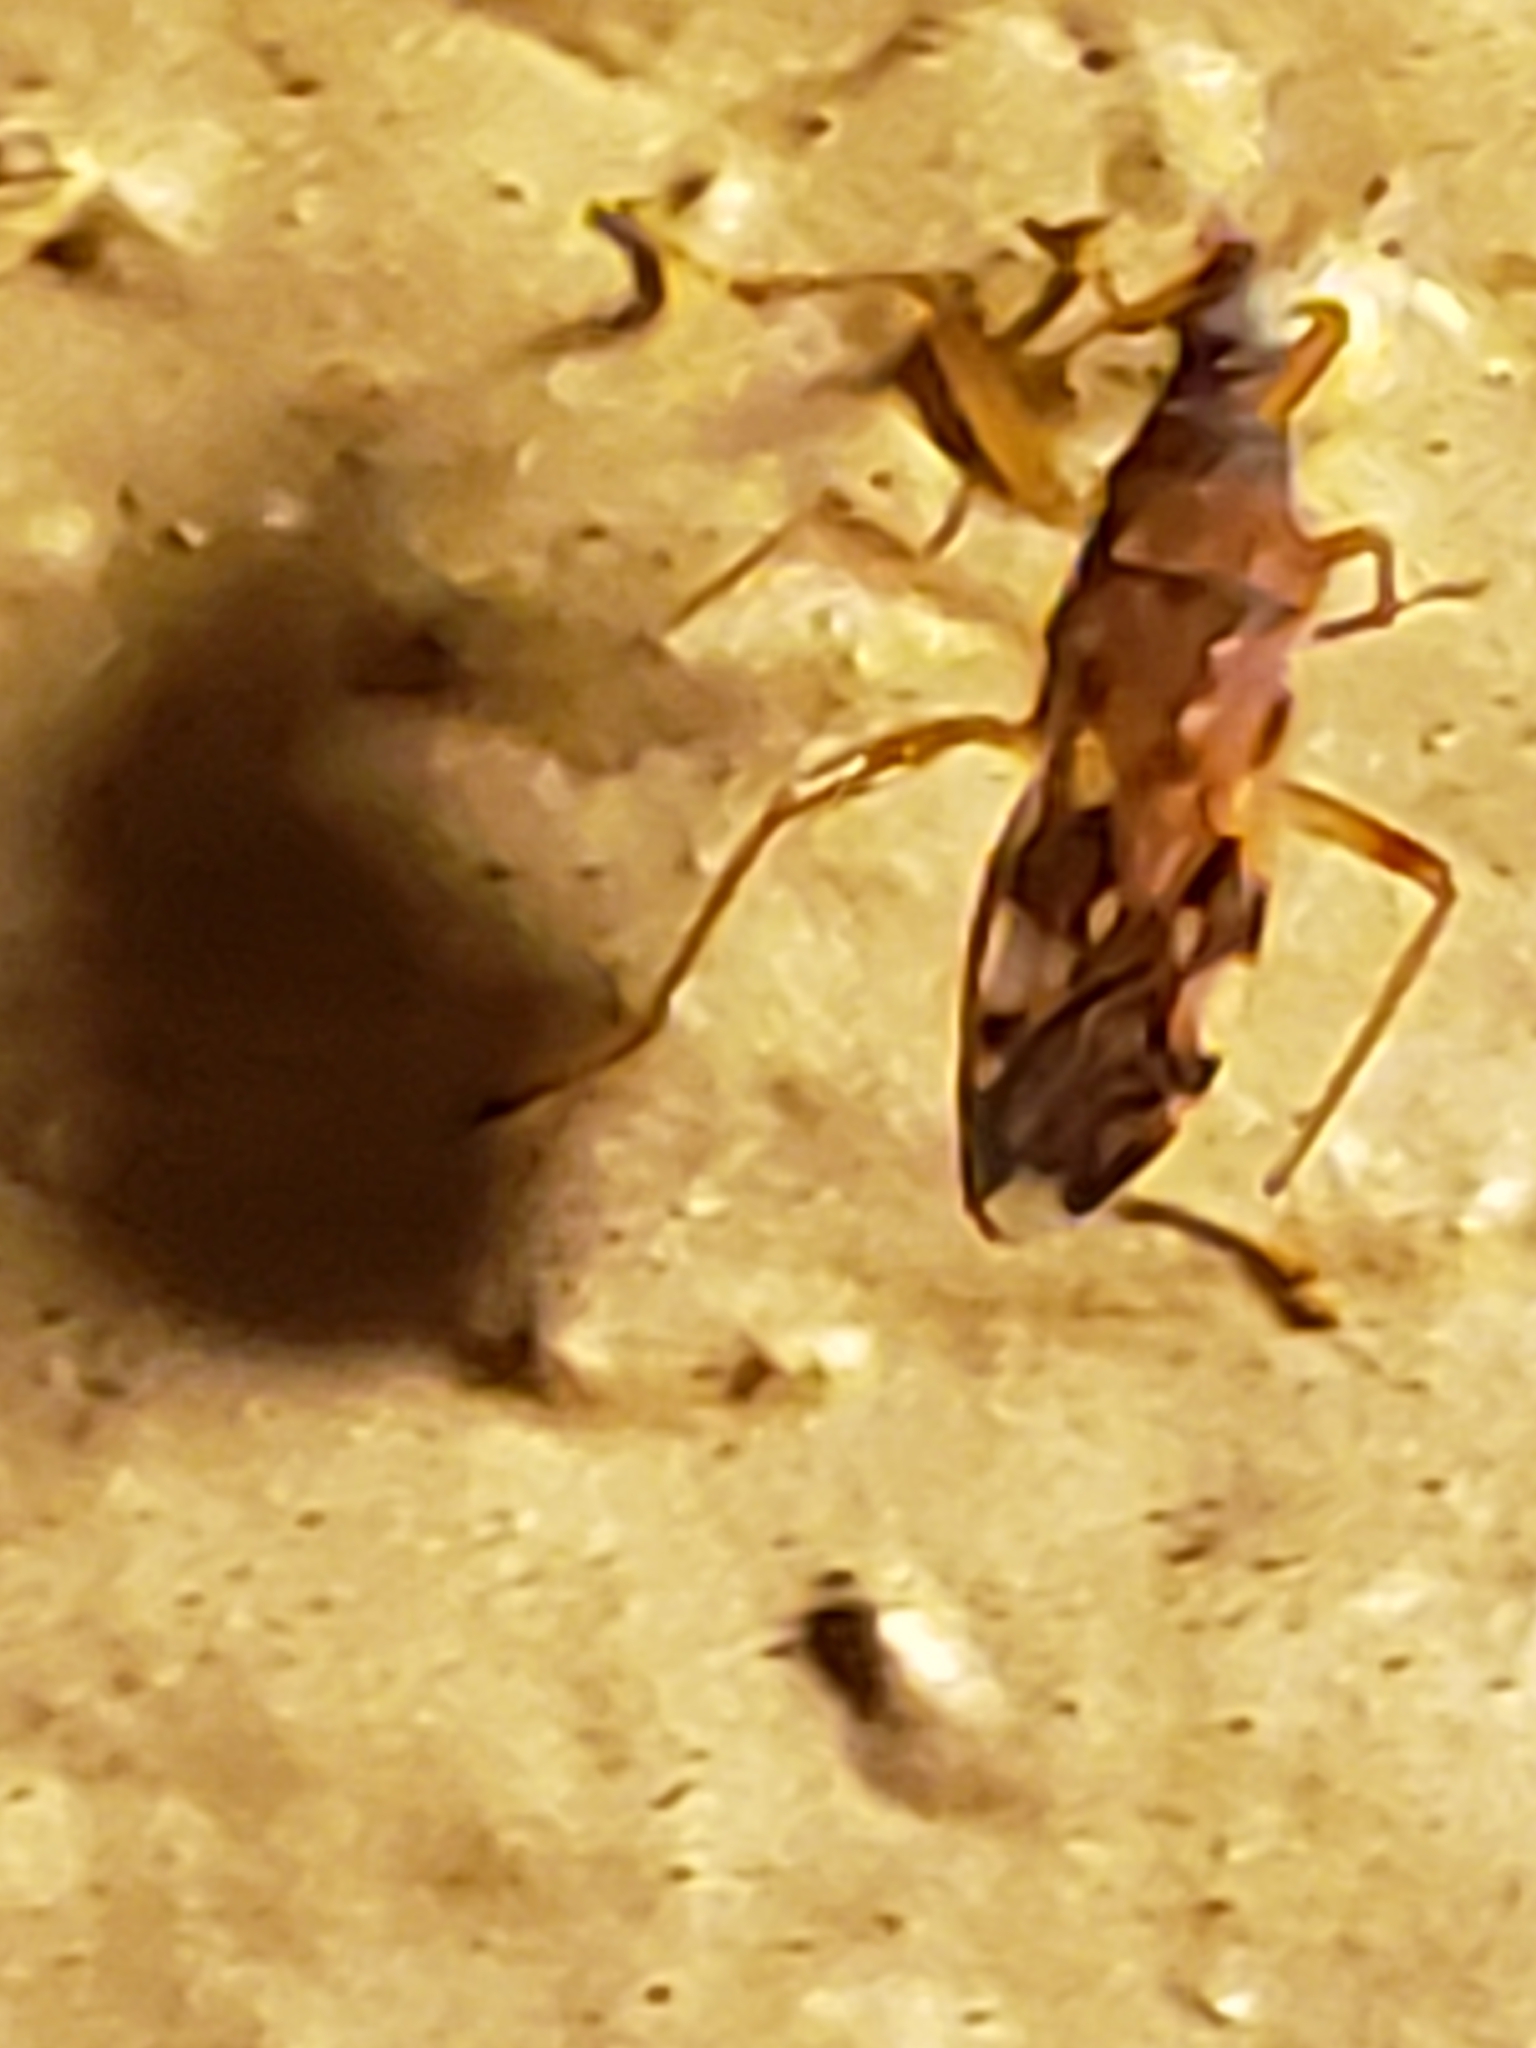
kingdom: Animalia
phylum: Arthropoda
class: Insecta
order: Hemiptera
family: Rhyparochromidae
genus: Ozophora
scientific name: Ozophora picturata
